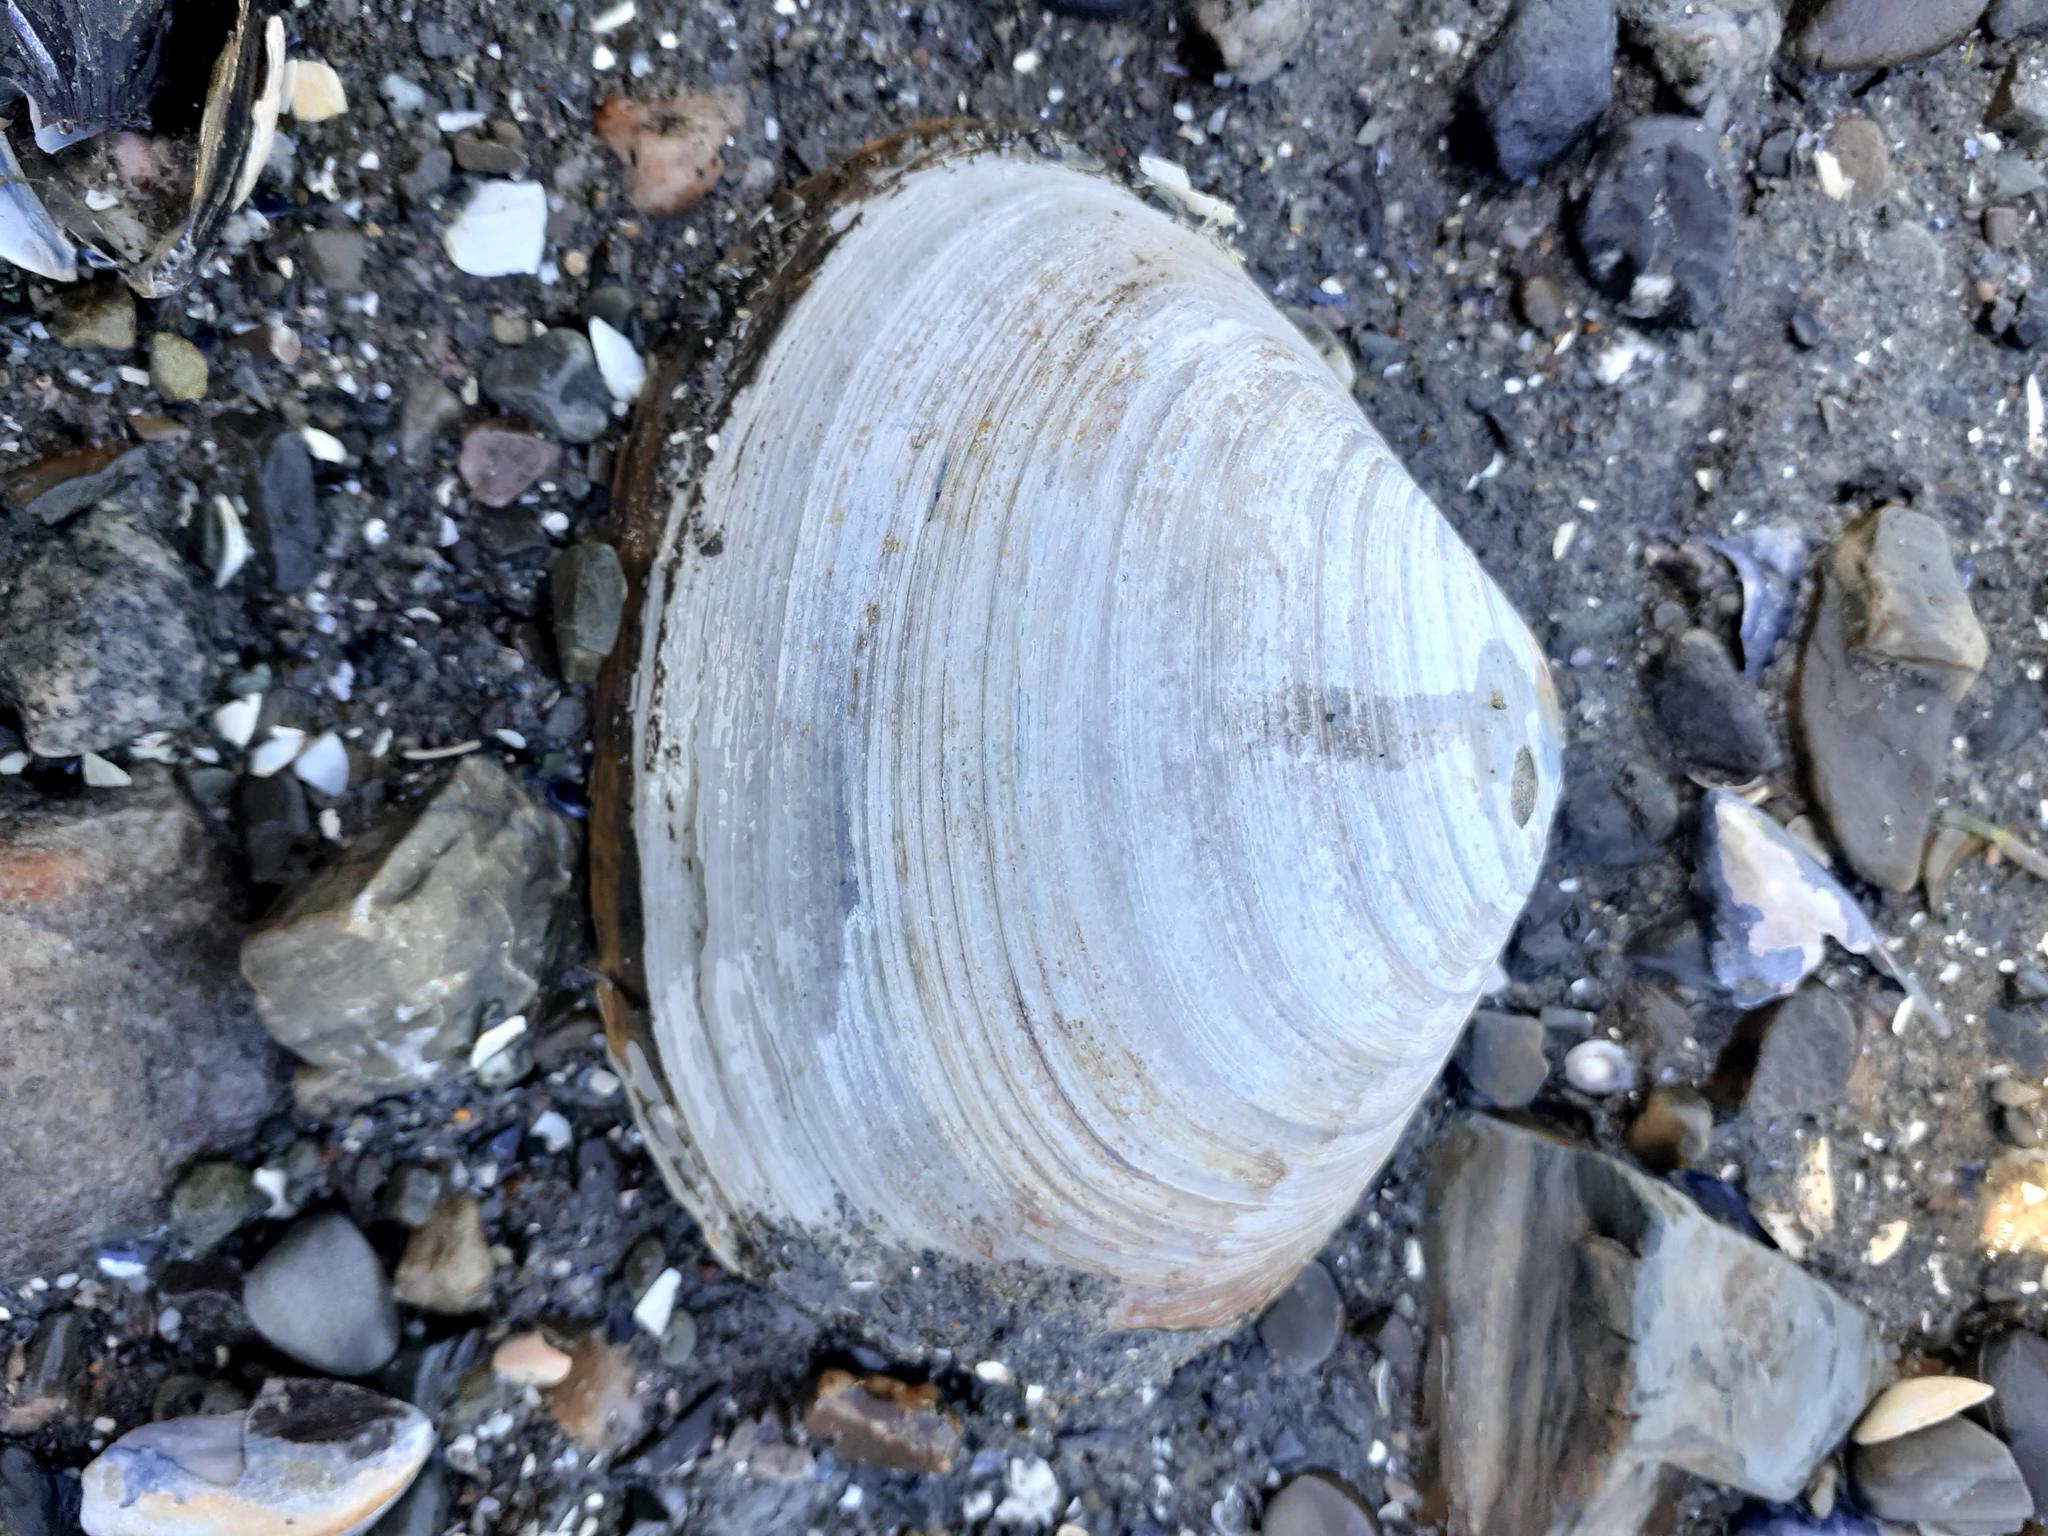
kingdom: Animalia
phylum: Mollusca
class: Bivalvia
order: Venerida
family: Mactridae
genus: Mactromeris
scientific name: Mactromeris polynyma
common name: Arctic surf clam
